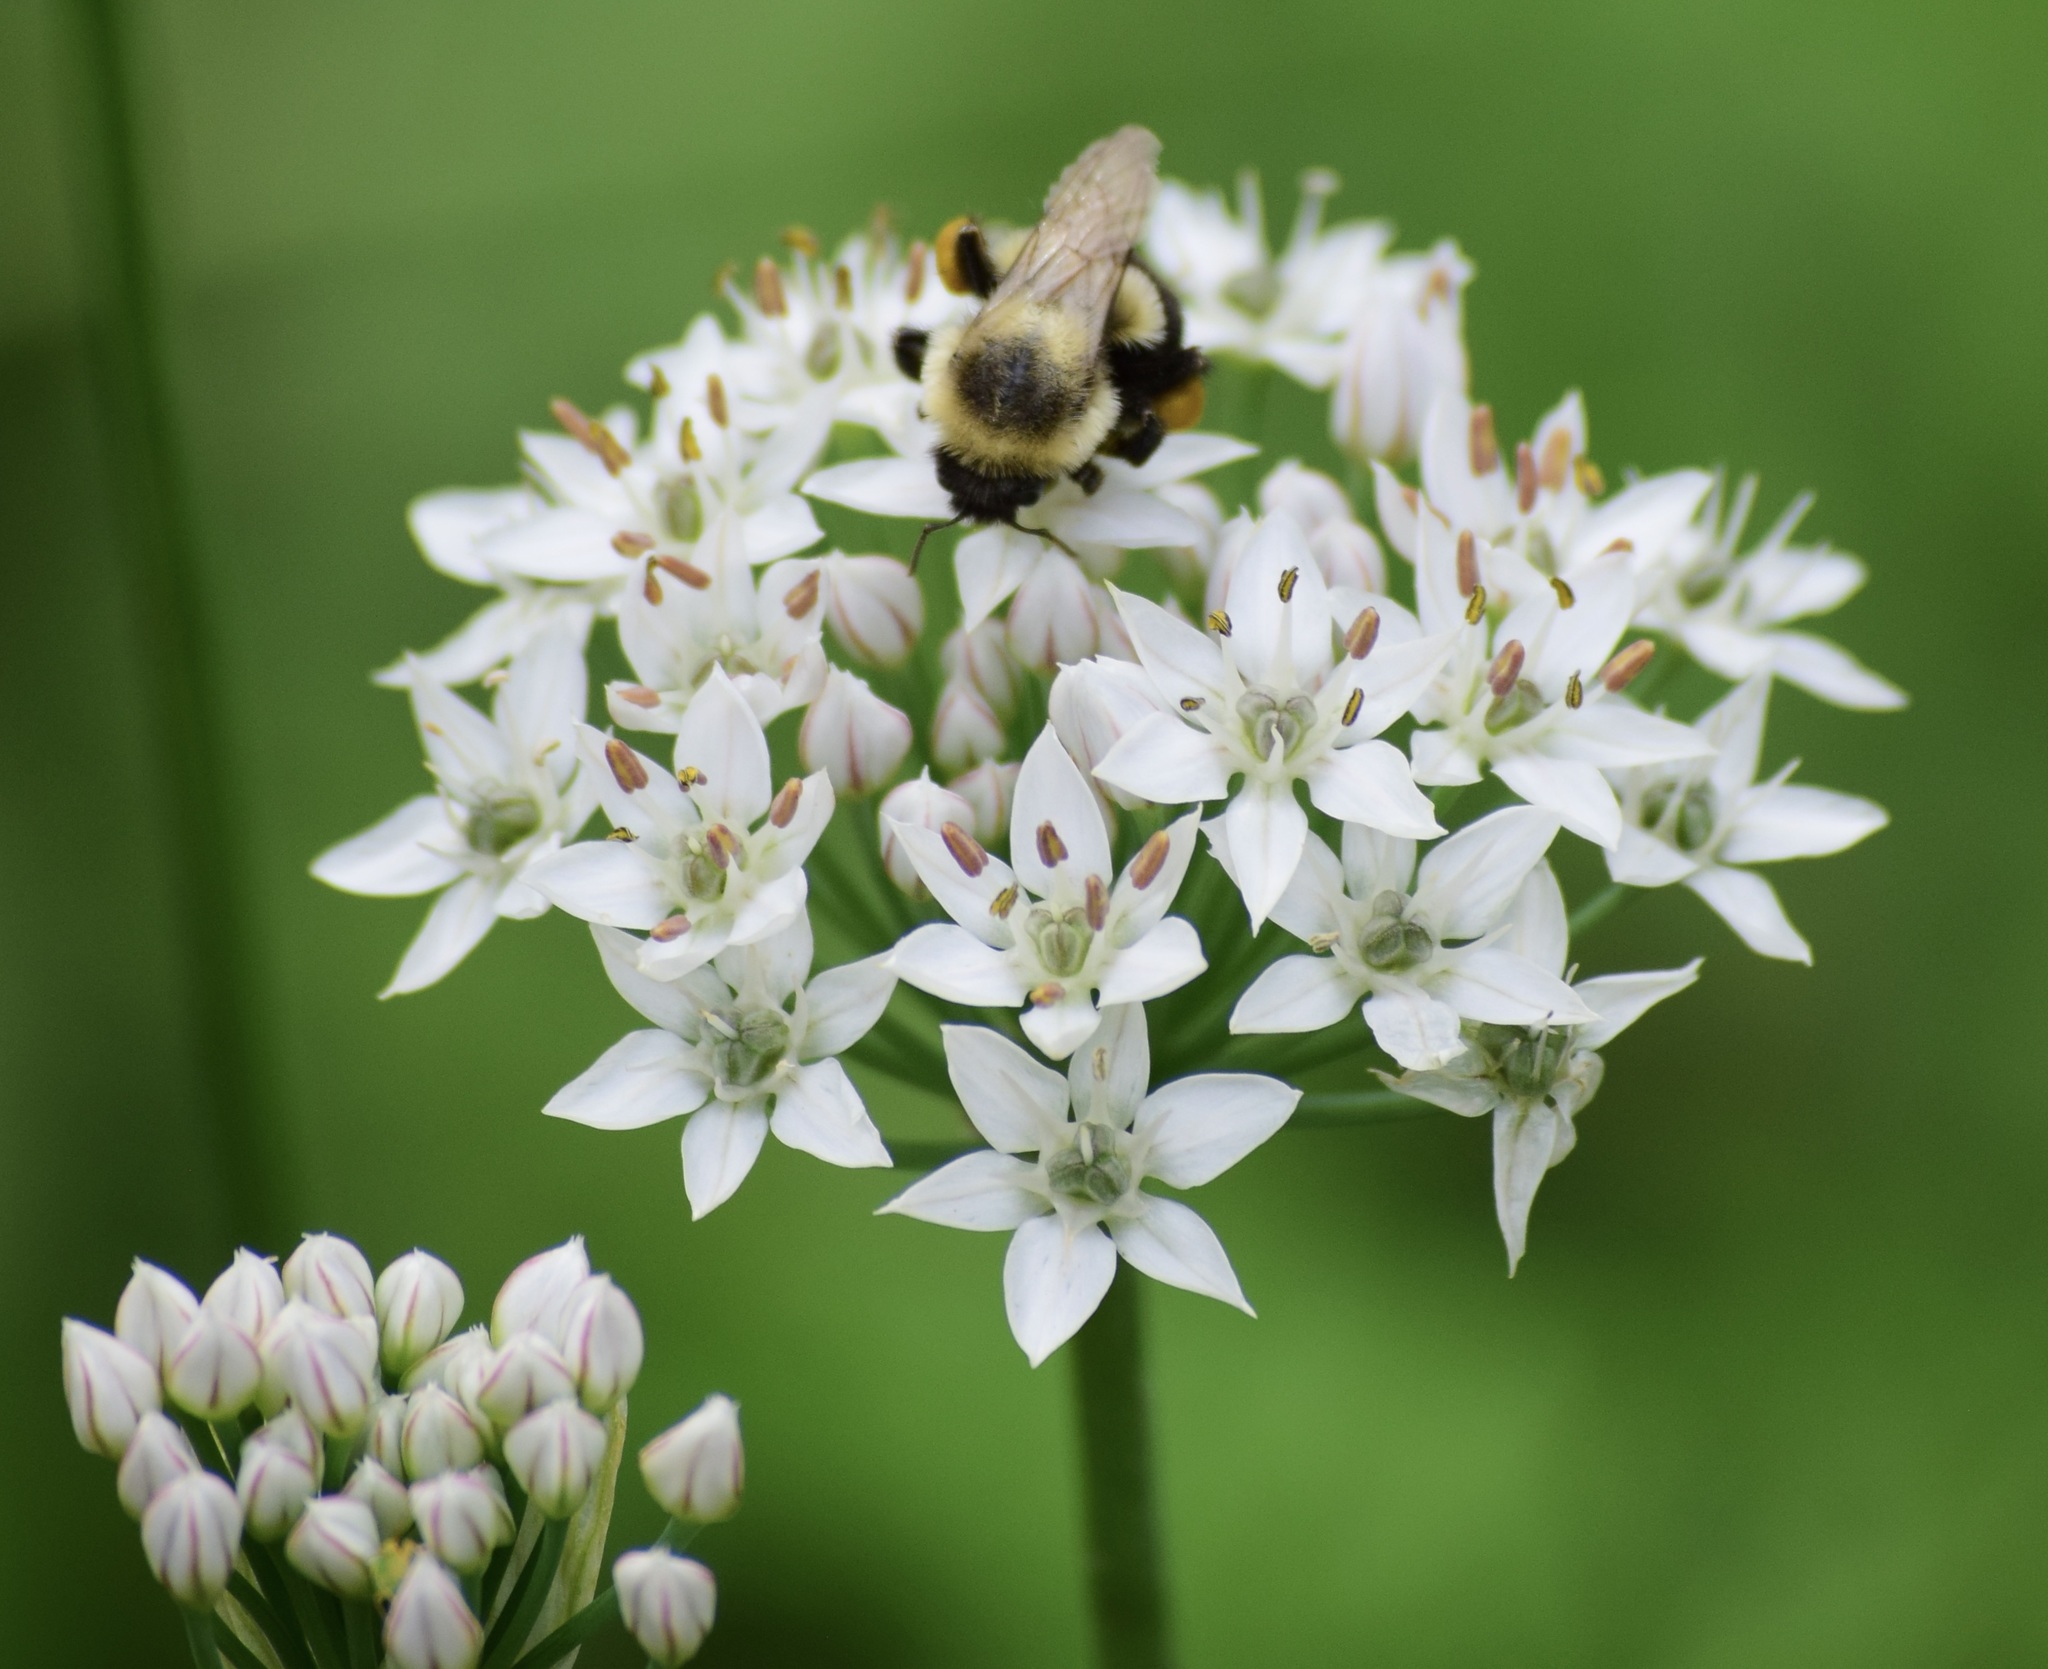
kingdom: Animalia
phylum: Arthropoda
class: Insecta
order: Hymenoptera
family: Apidae
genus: Bombus
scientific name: Bombus impatiens
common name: Common eastern bumble bee
